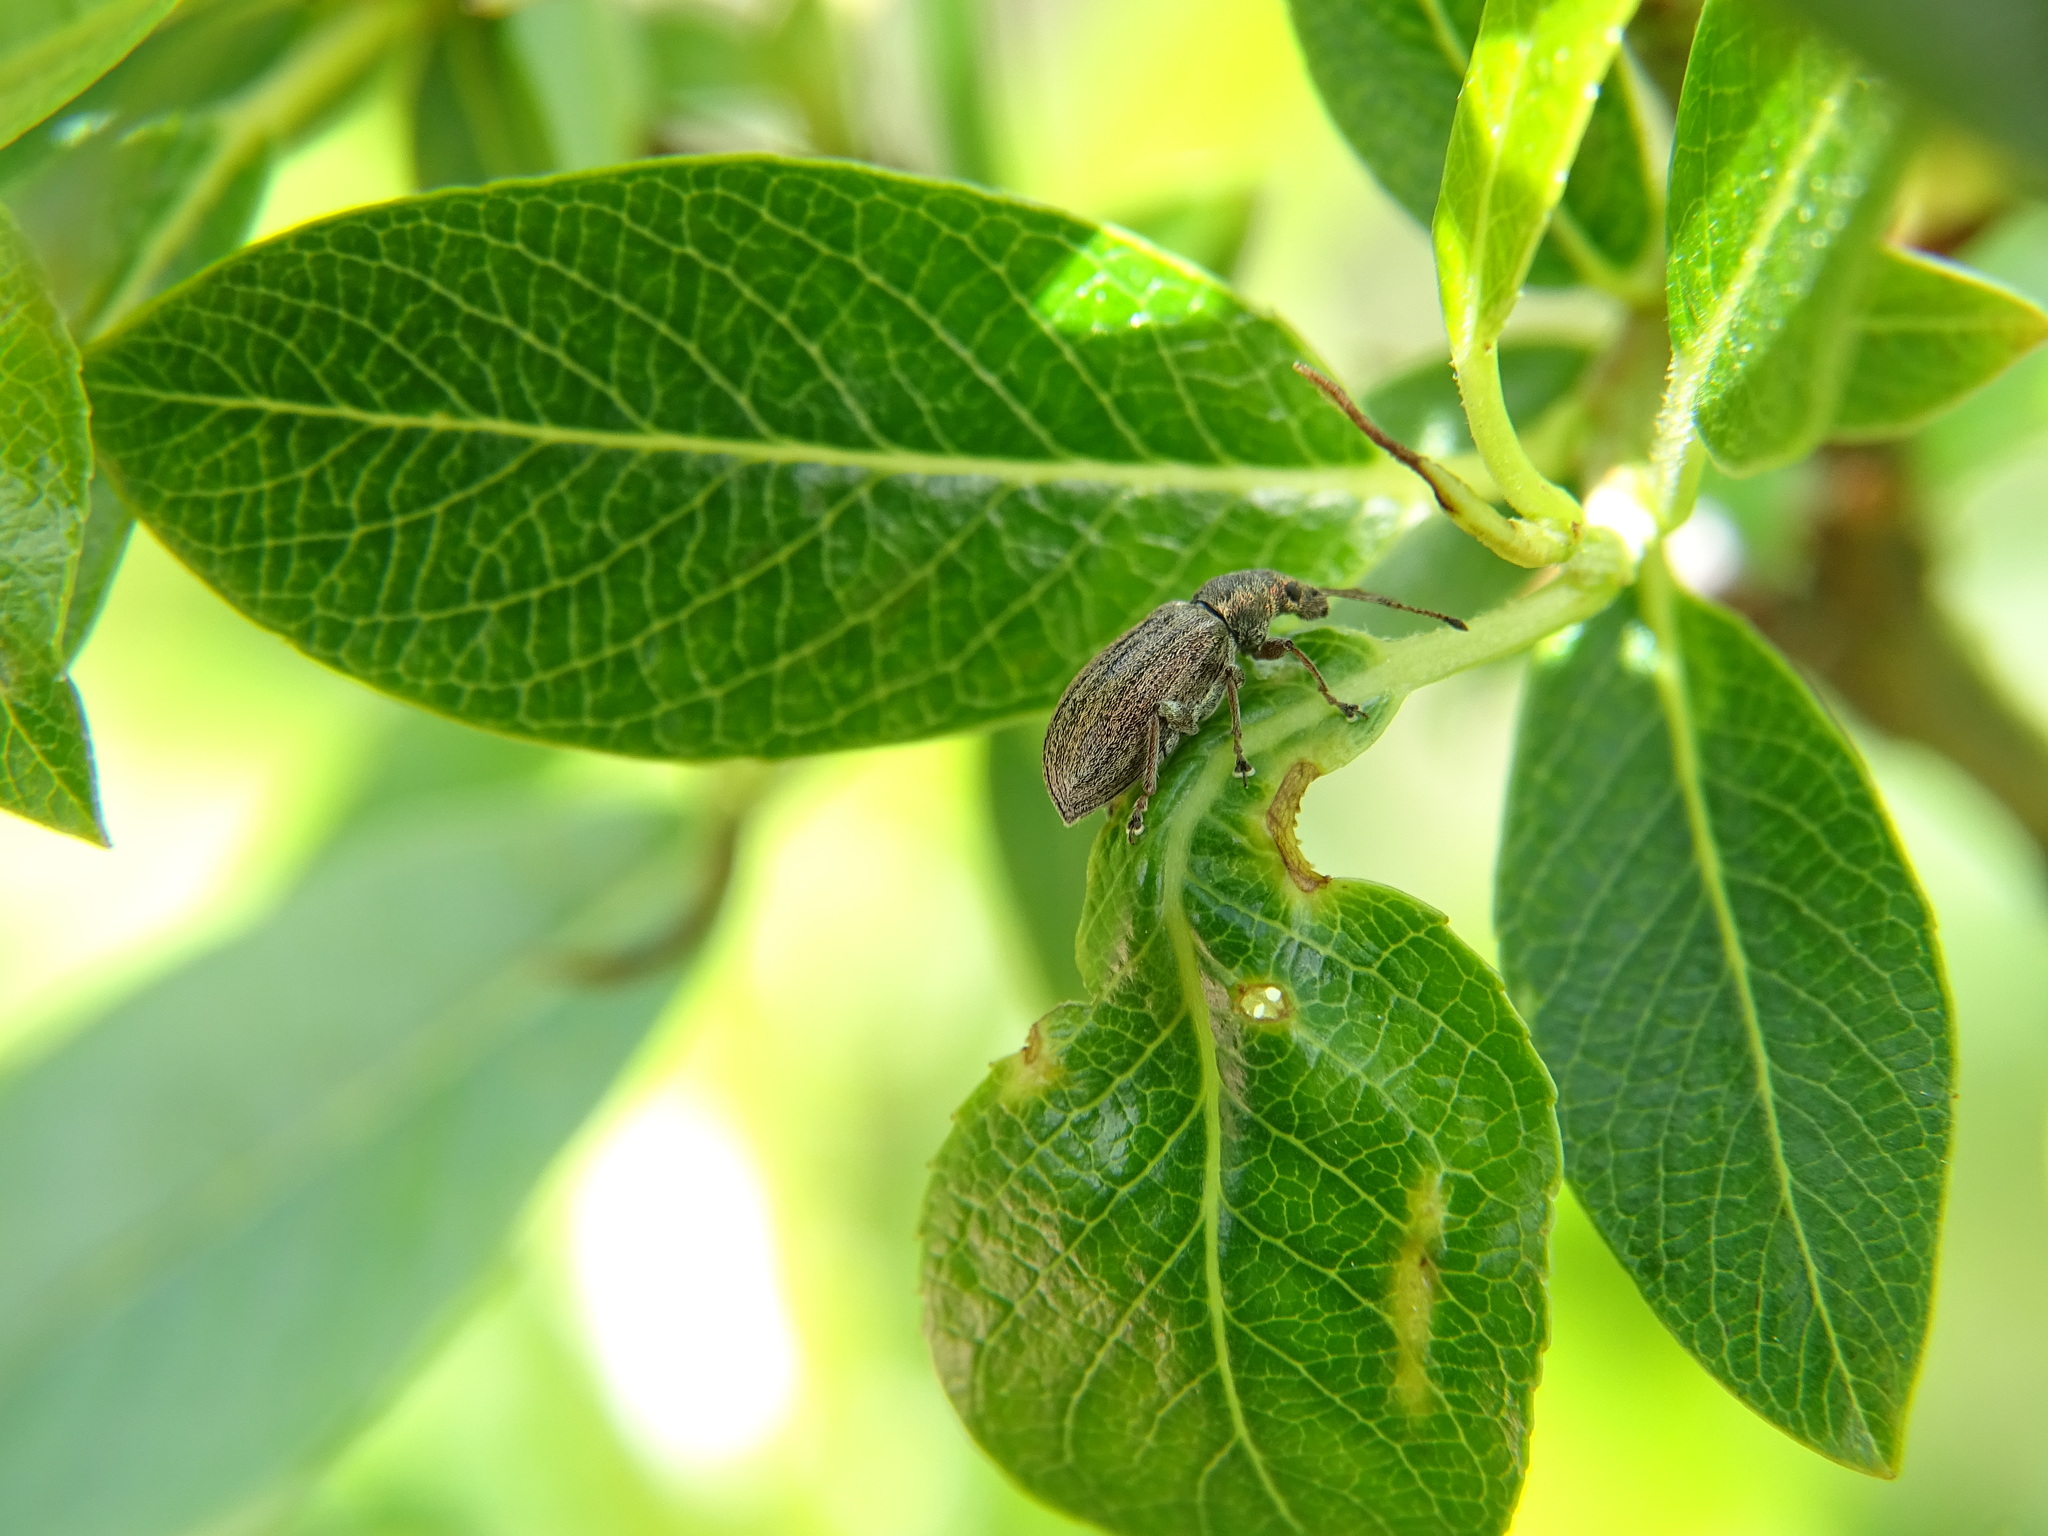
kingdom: Animalia
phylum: Arthropoda
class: Insecta
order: Coleoptera
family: Curculionidae
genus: Phyllobius
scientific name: Phyllobius pyri
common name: Common leaf weevil
